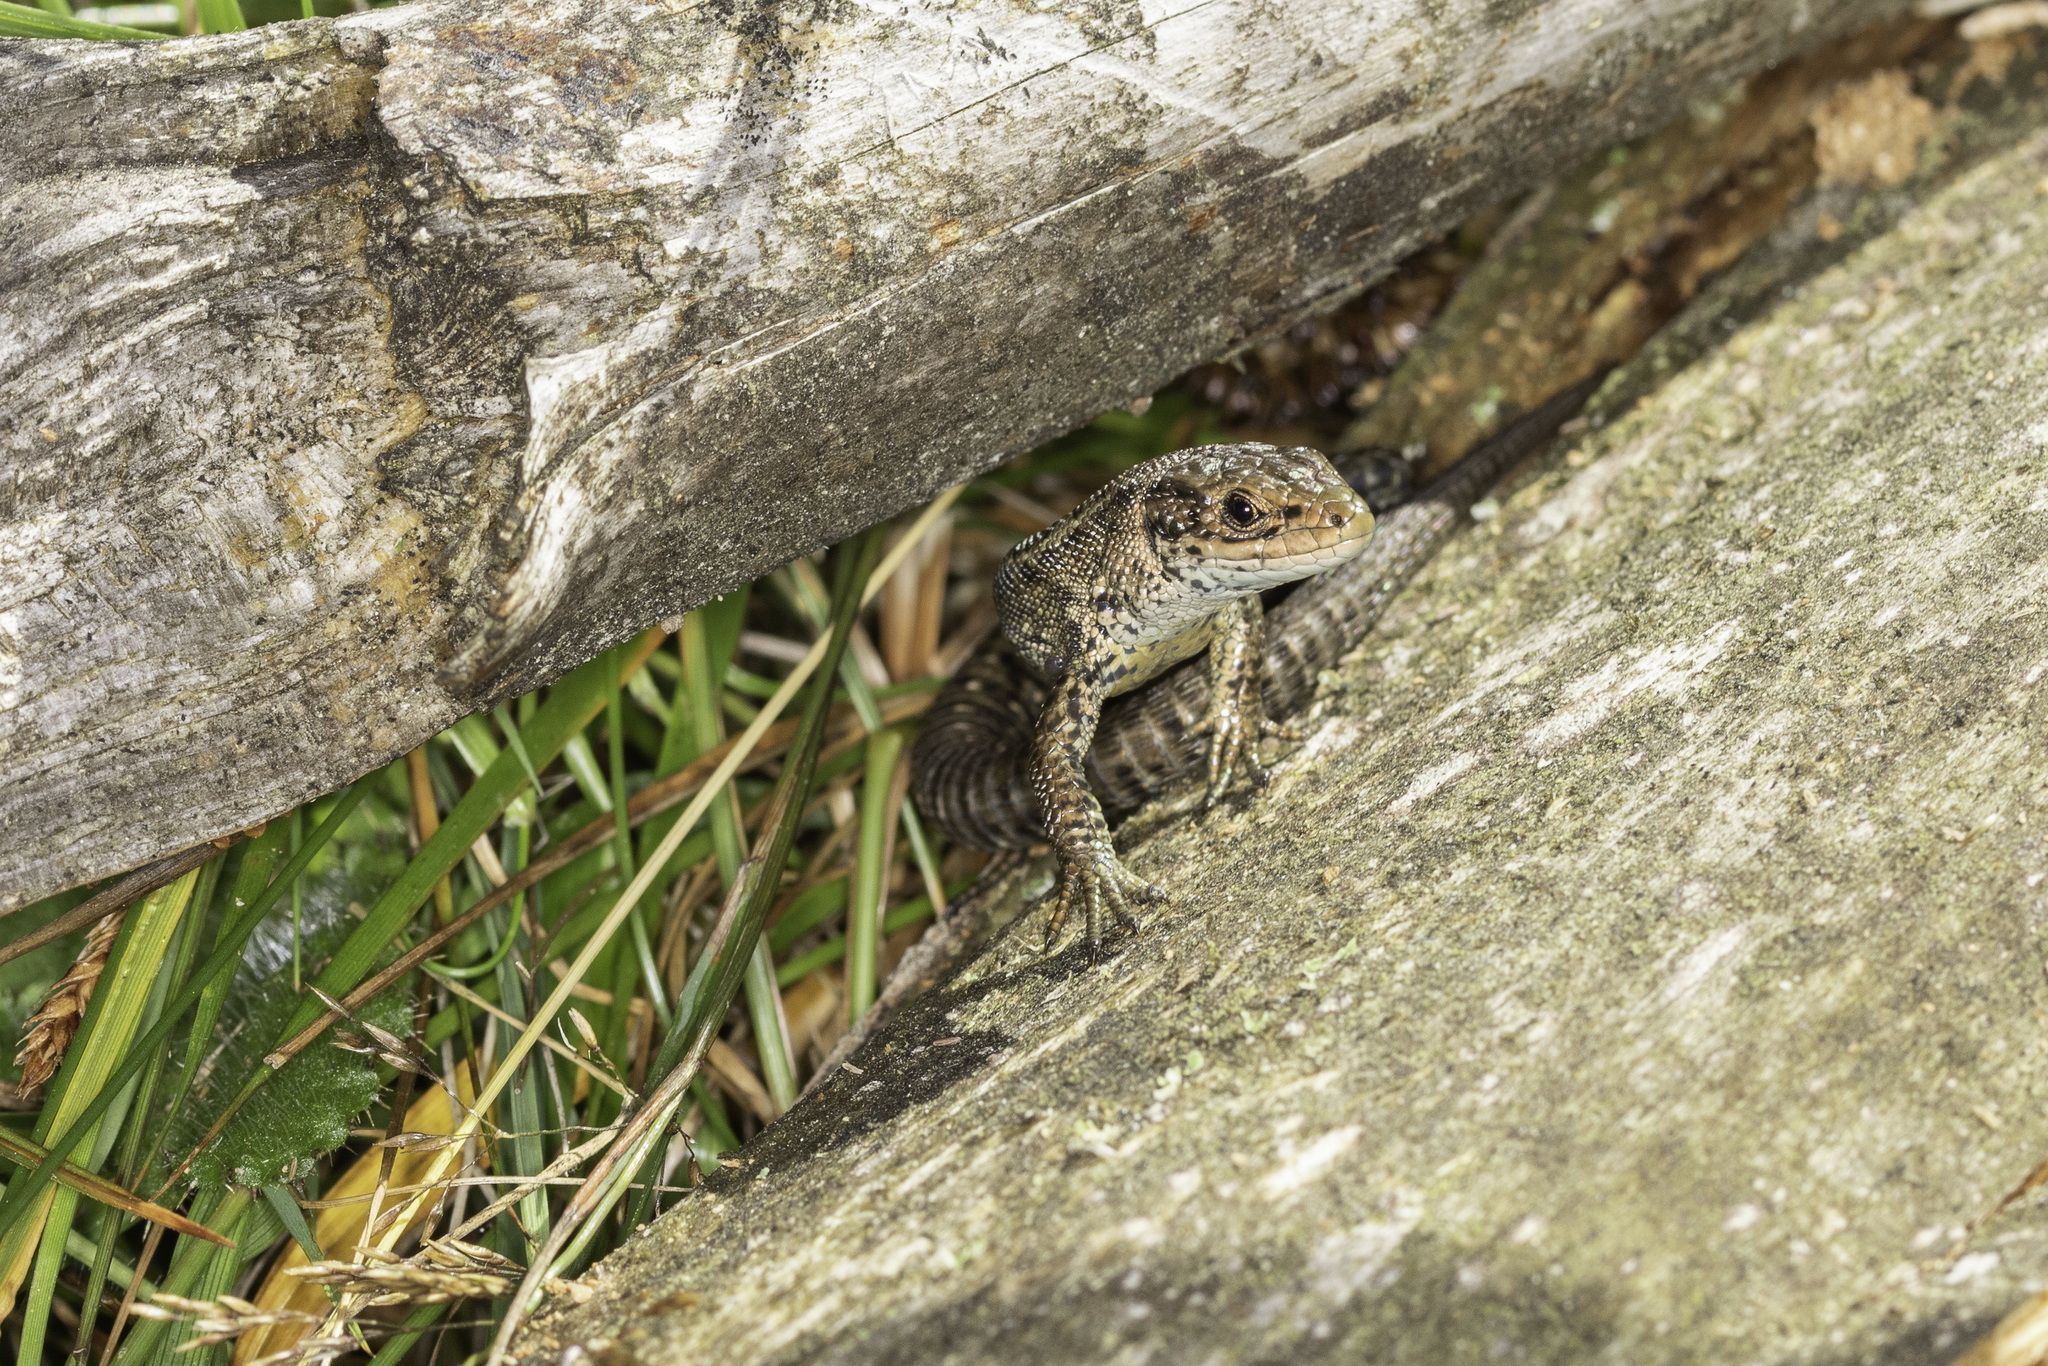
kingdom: Animalia
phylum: Chordata
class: Squamata
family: Lacertidae
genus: Zootoca
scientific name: Zootoca vivipara
